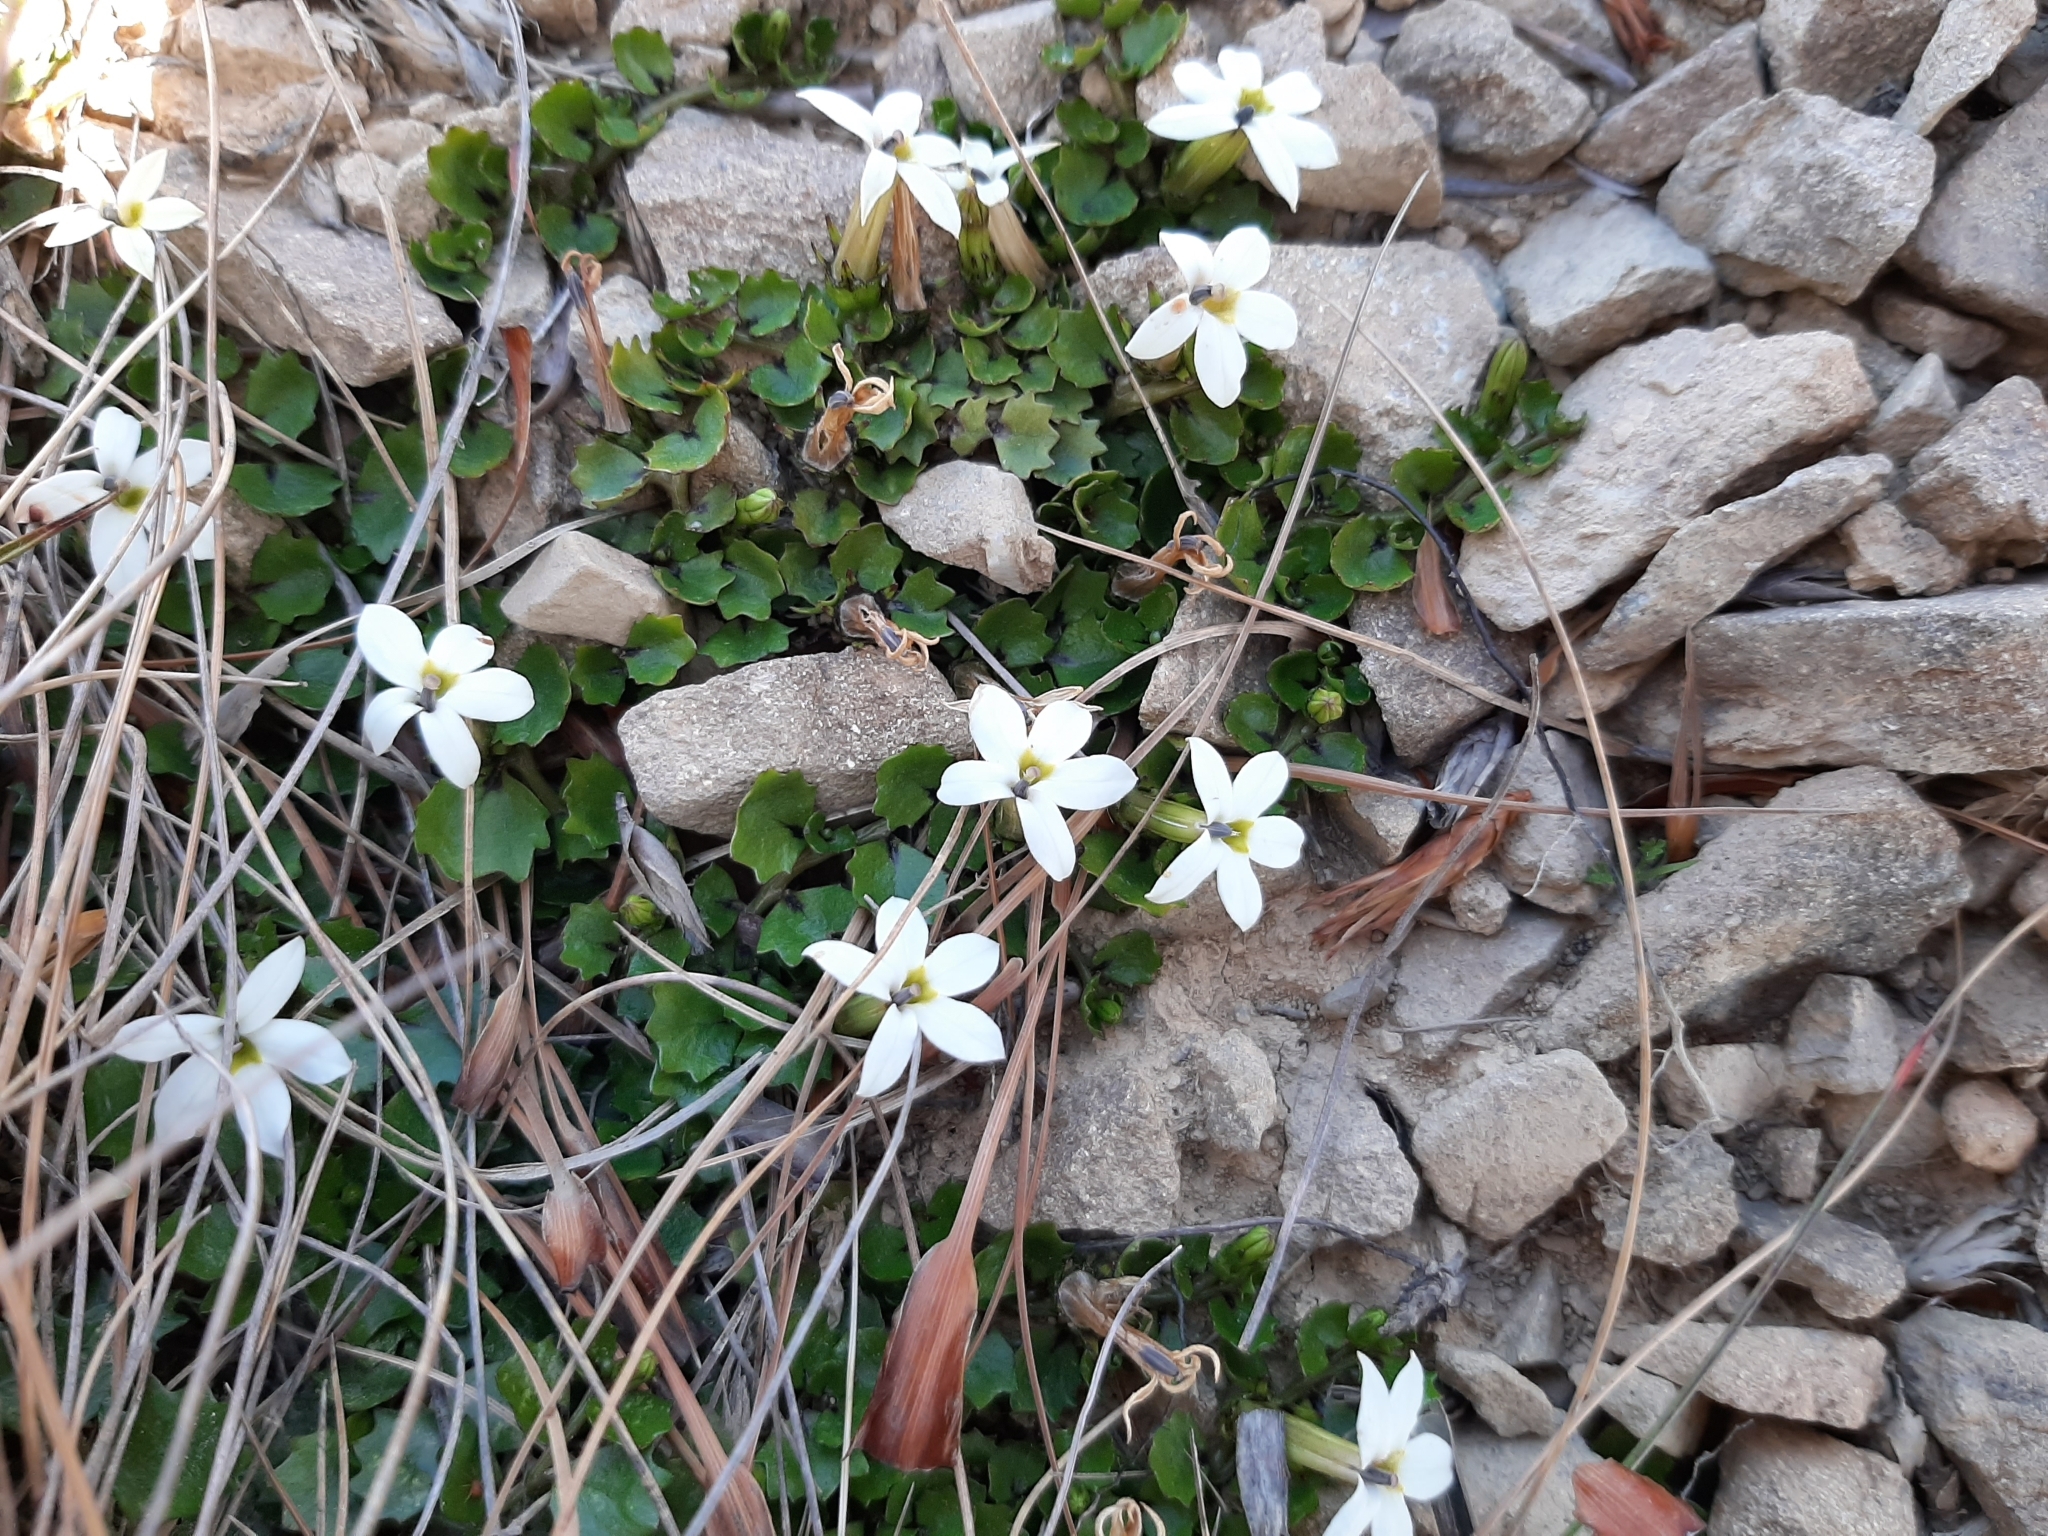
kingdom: Plantae
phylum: Tracheophyta
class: Magnoliopsida
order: Asterales
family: Campanulaceae
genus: Lobelia
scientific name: Lobelia macrodon
